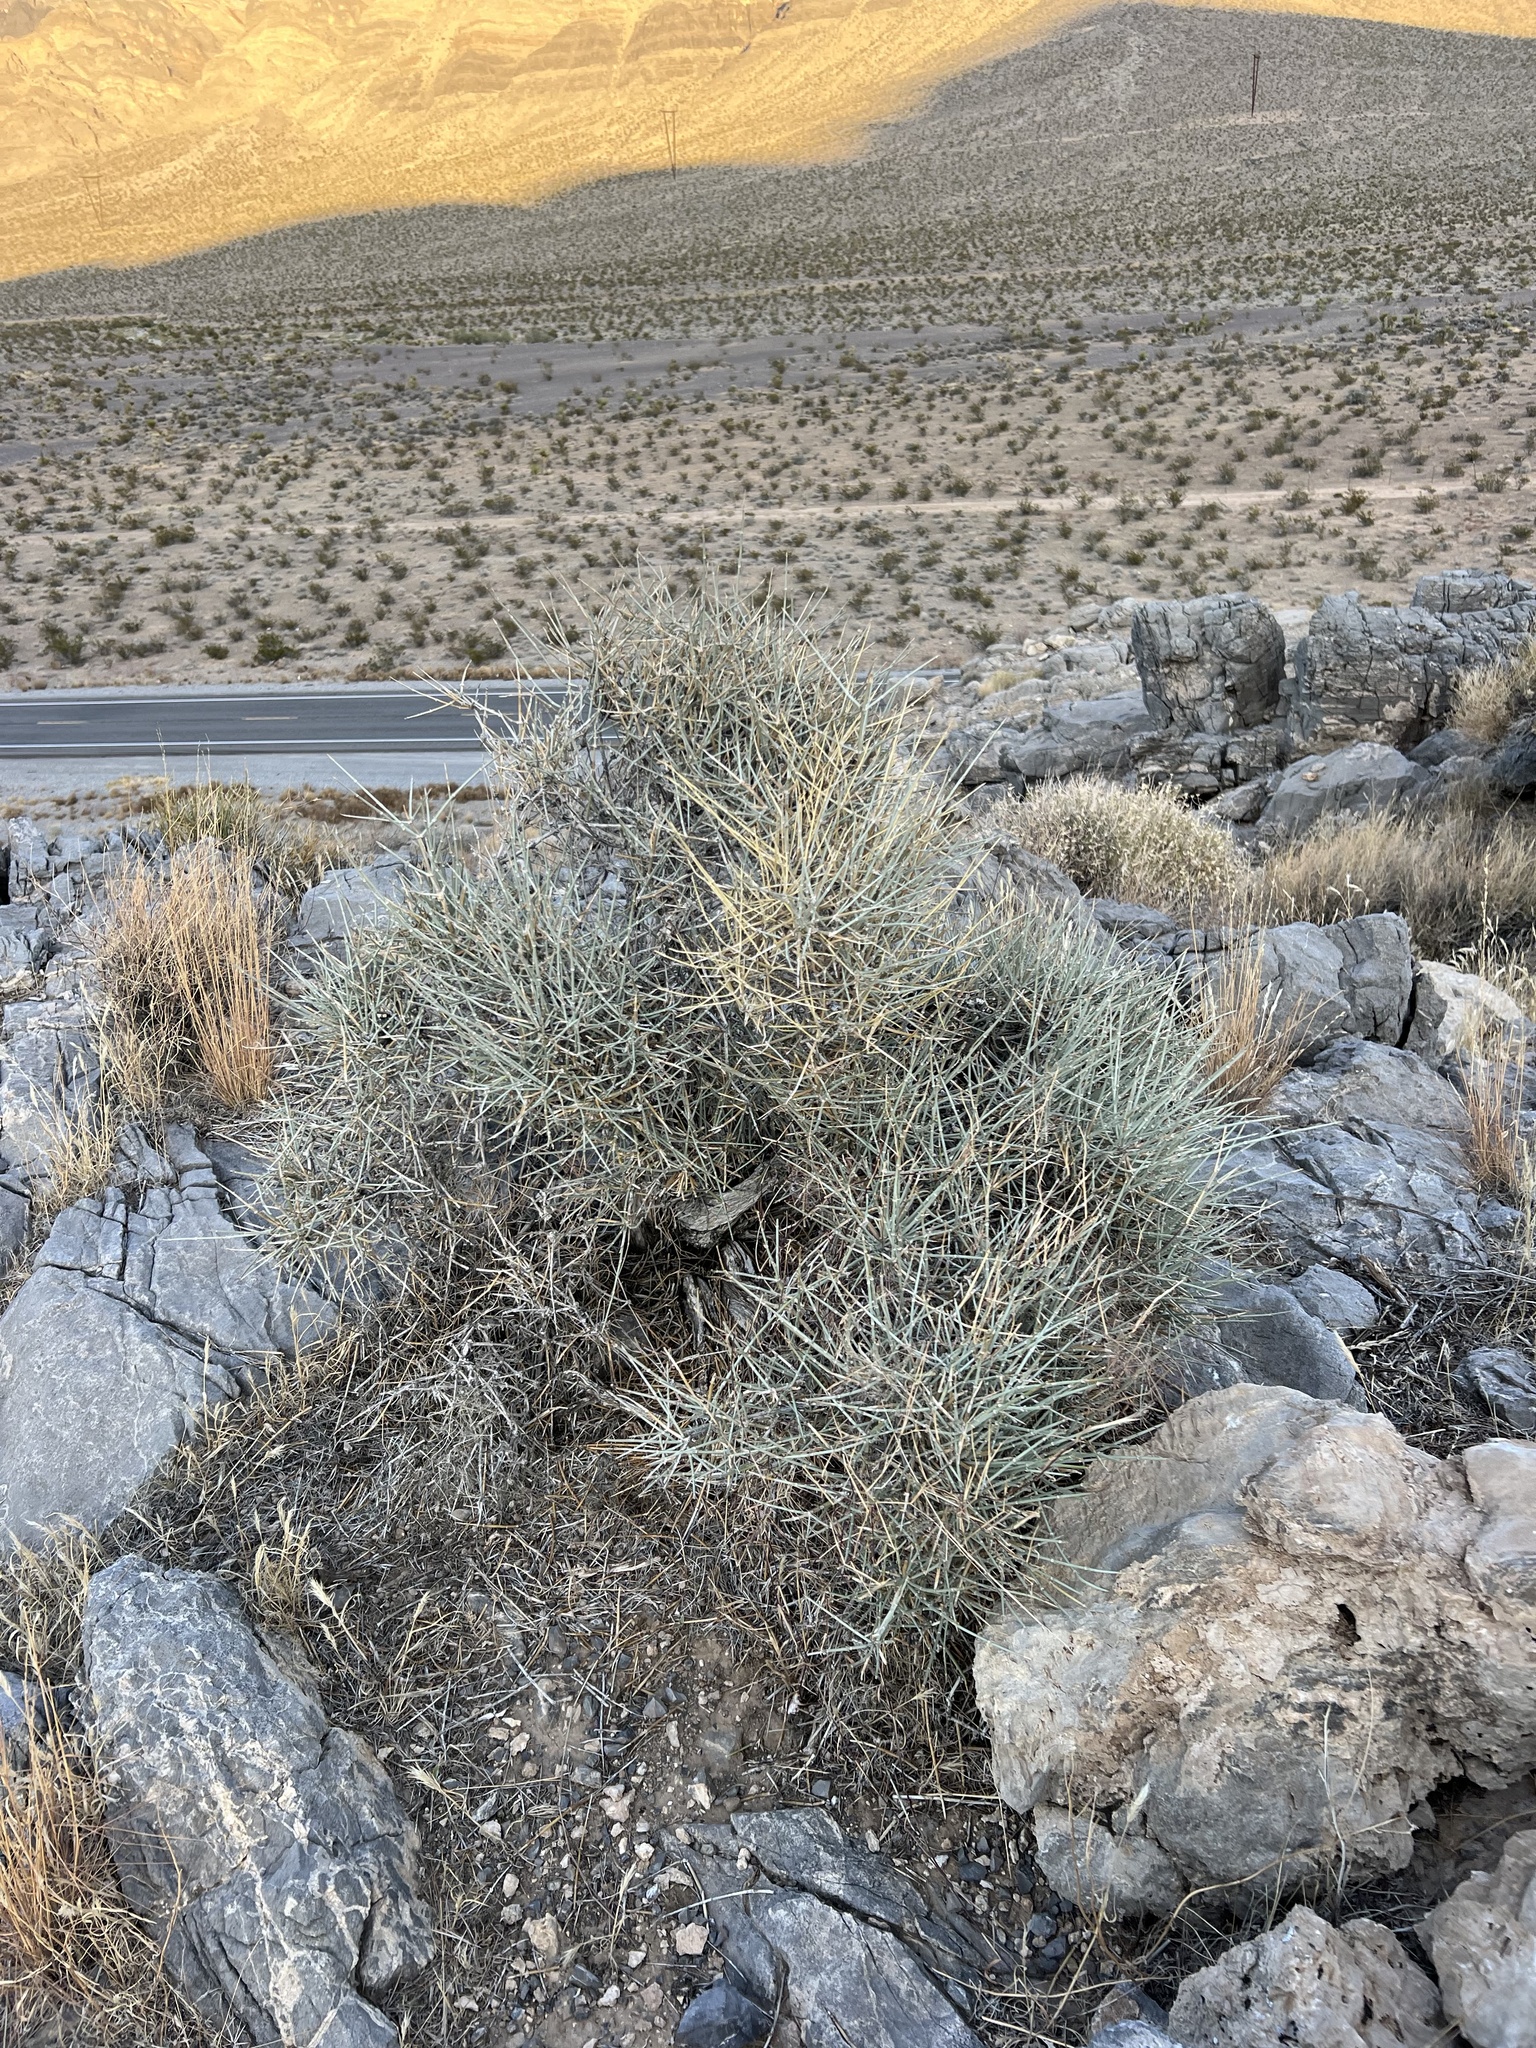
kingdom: Plantae
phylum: Tracheophyta
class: Gnetopsida
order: Ephedrales
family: Ephedraceae
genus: Ephedra
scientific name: Ephedra nevadensis
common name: Gray ephedra
